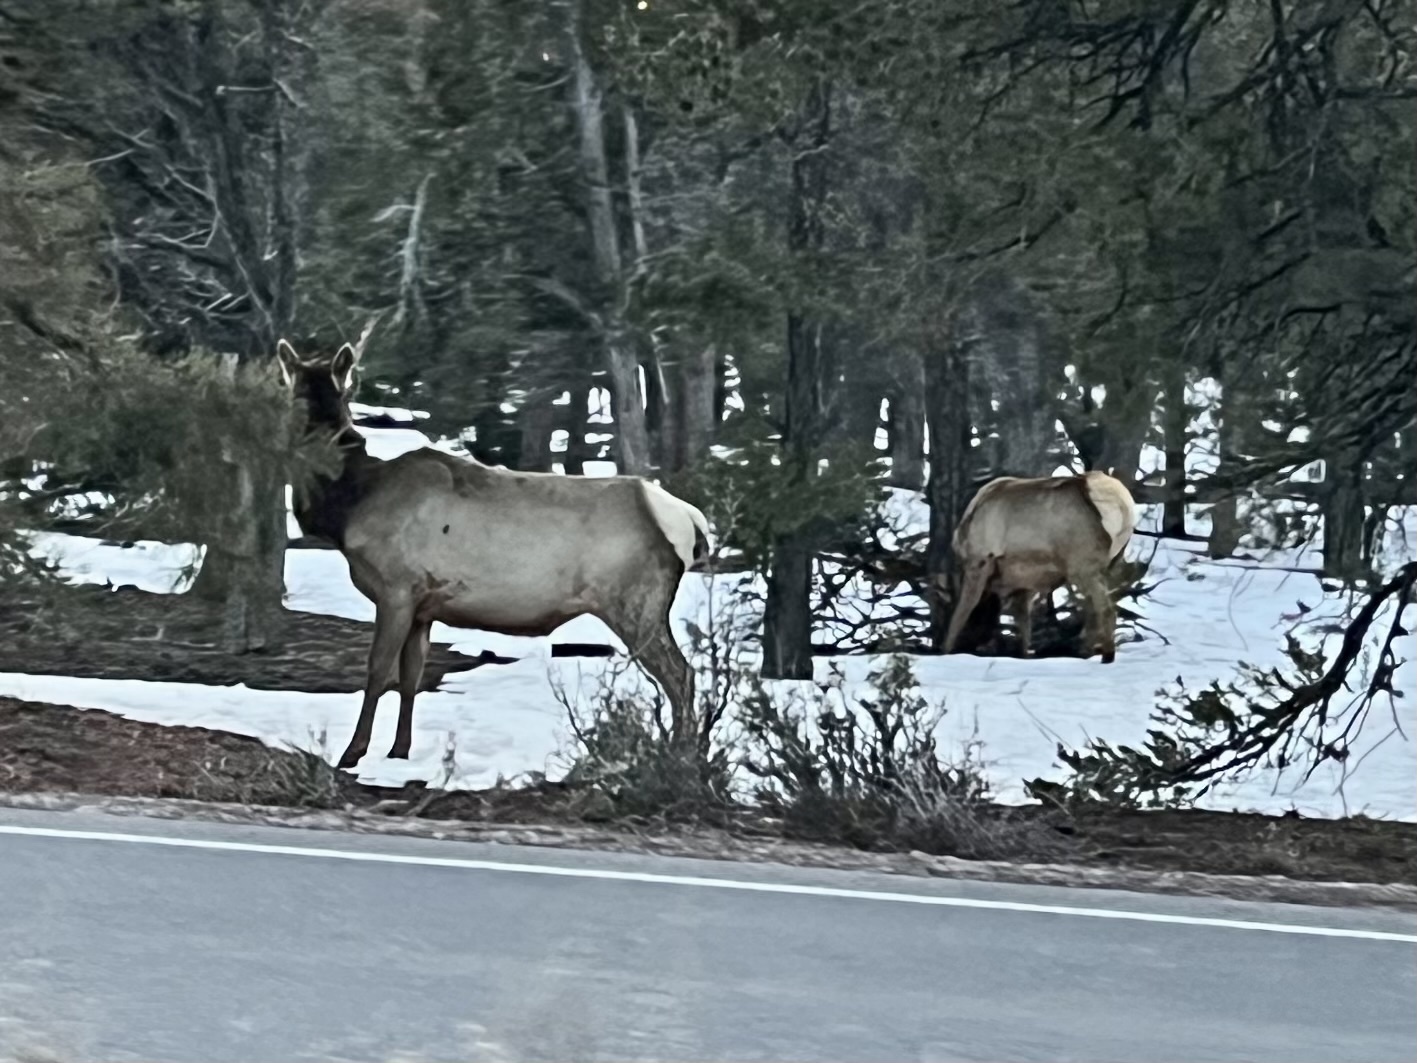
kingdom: Animalia
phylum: Chordata
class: Mammalia
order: Artiodactyla
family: Cervidae
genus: Cervus
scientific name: Cervus elaphus
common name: Red deer
